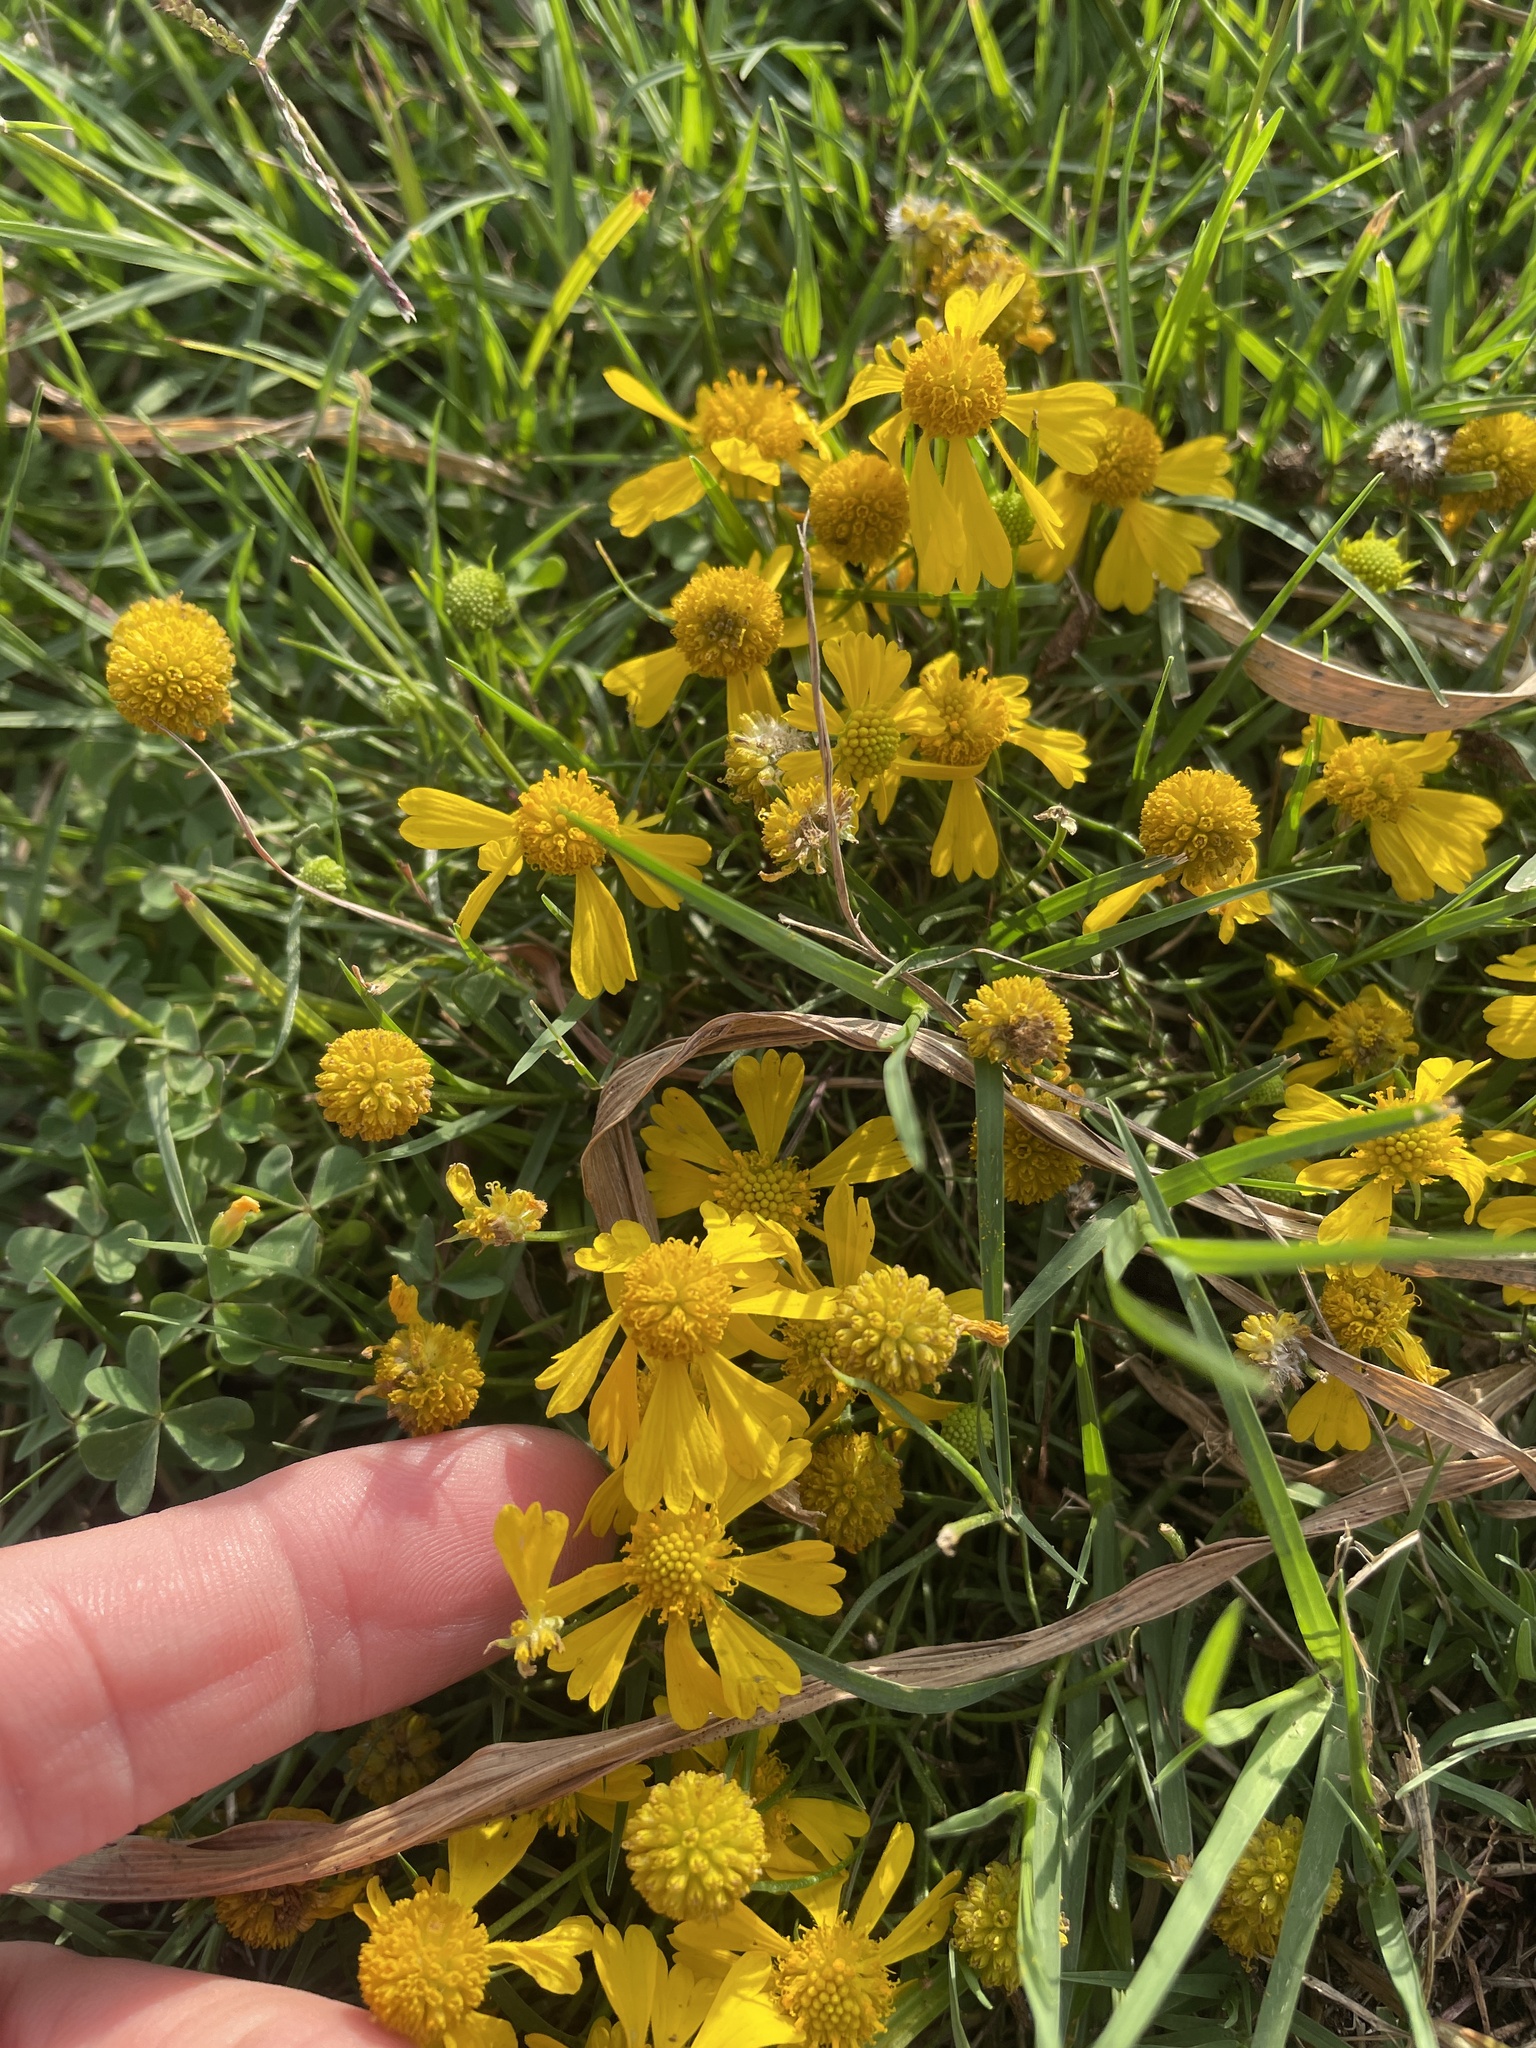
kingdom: Plantae
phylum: Tracheophyta
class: Magnoliopsida
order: Asterales
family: Asteraceae
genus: Helenium
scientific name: Helenium amarum
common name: Bitter sneezeweed
